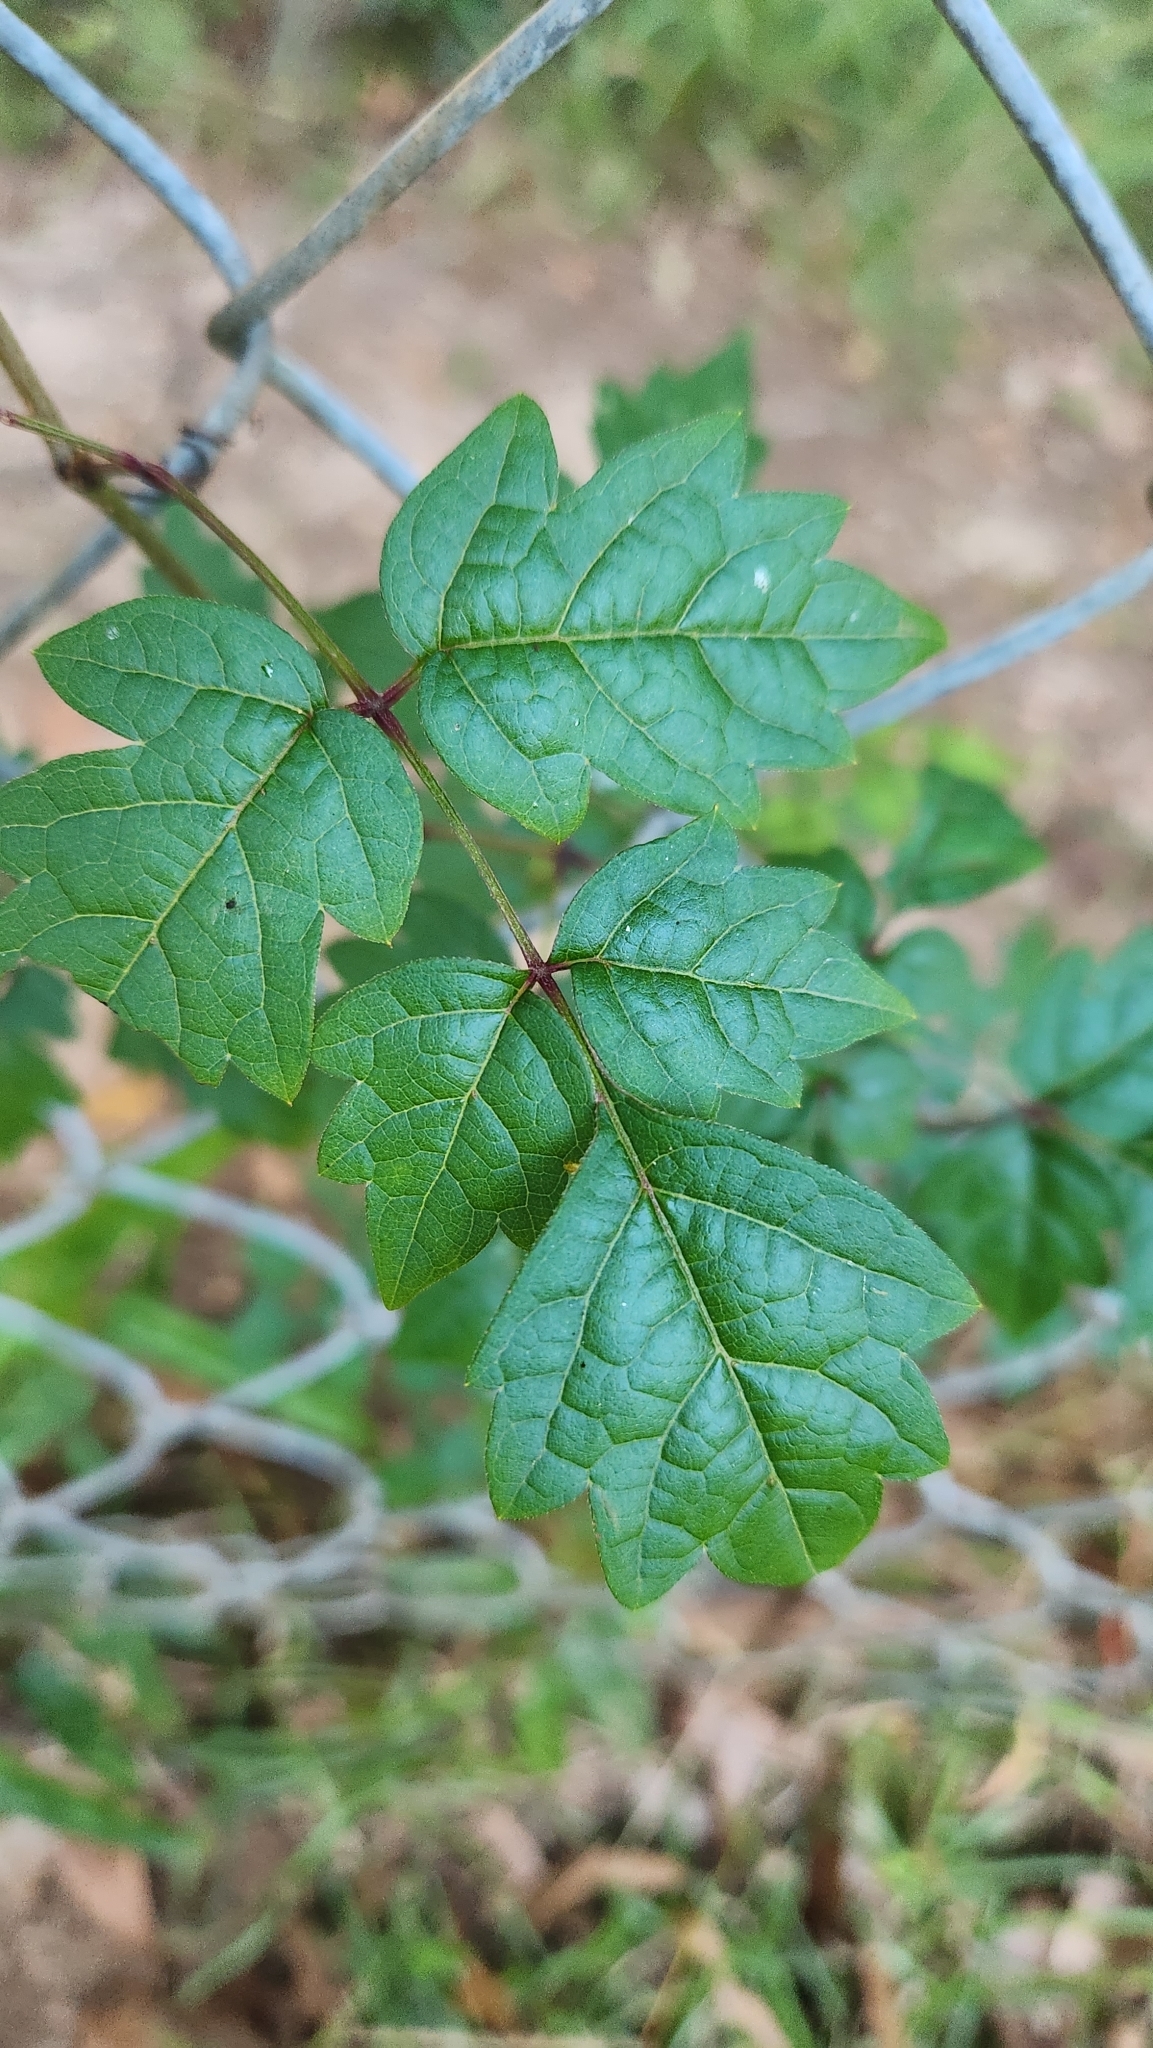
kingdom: Plantae
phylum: Tracheophyta
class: Magnoliopsida
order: Vitales
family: Vitaceae
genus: Nekemias
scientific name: Nekemias arborea
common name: Peppervine
